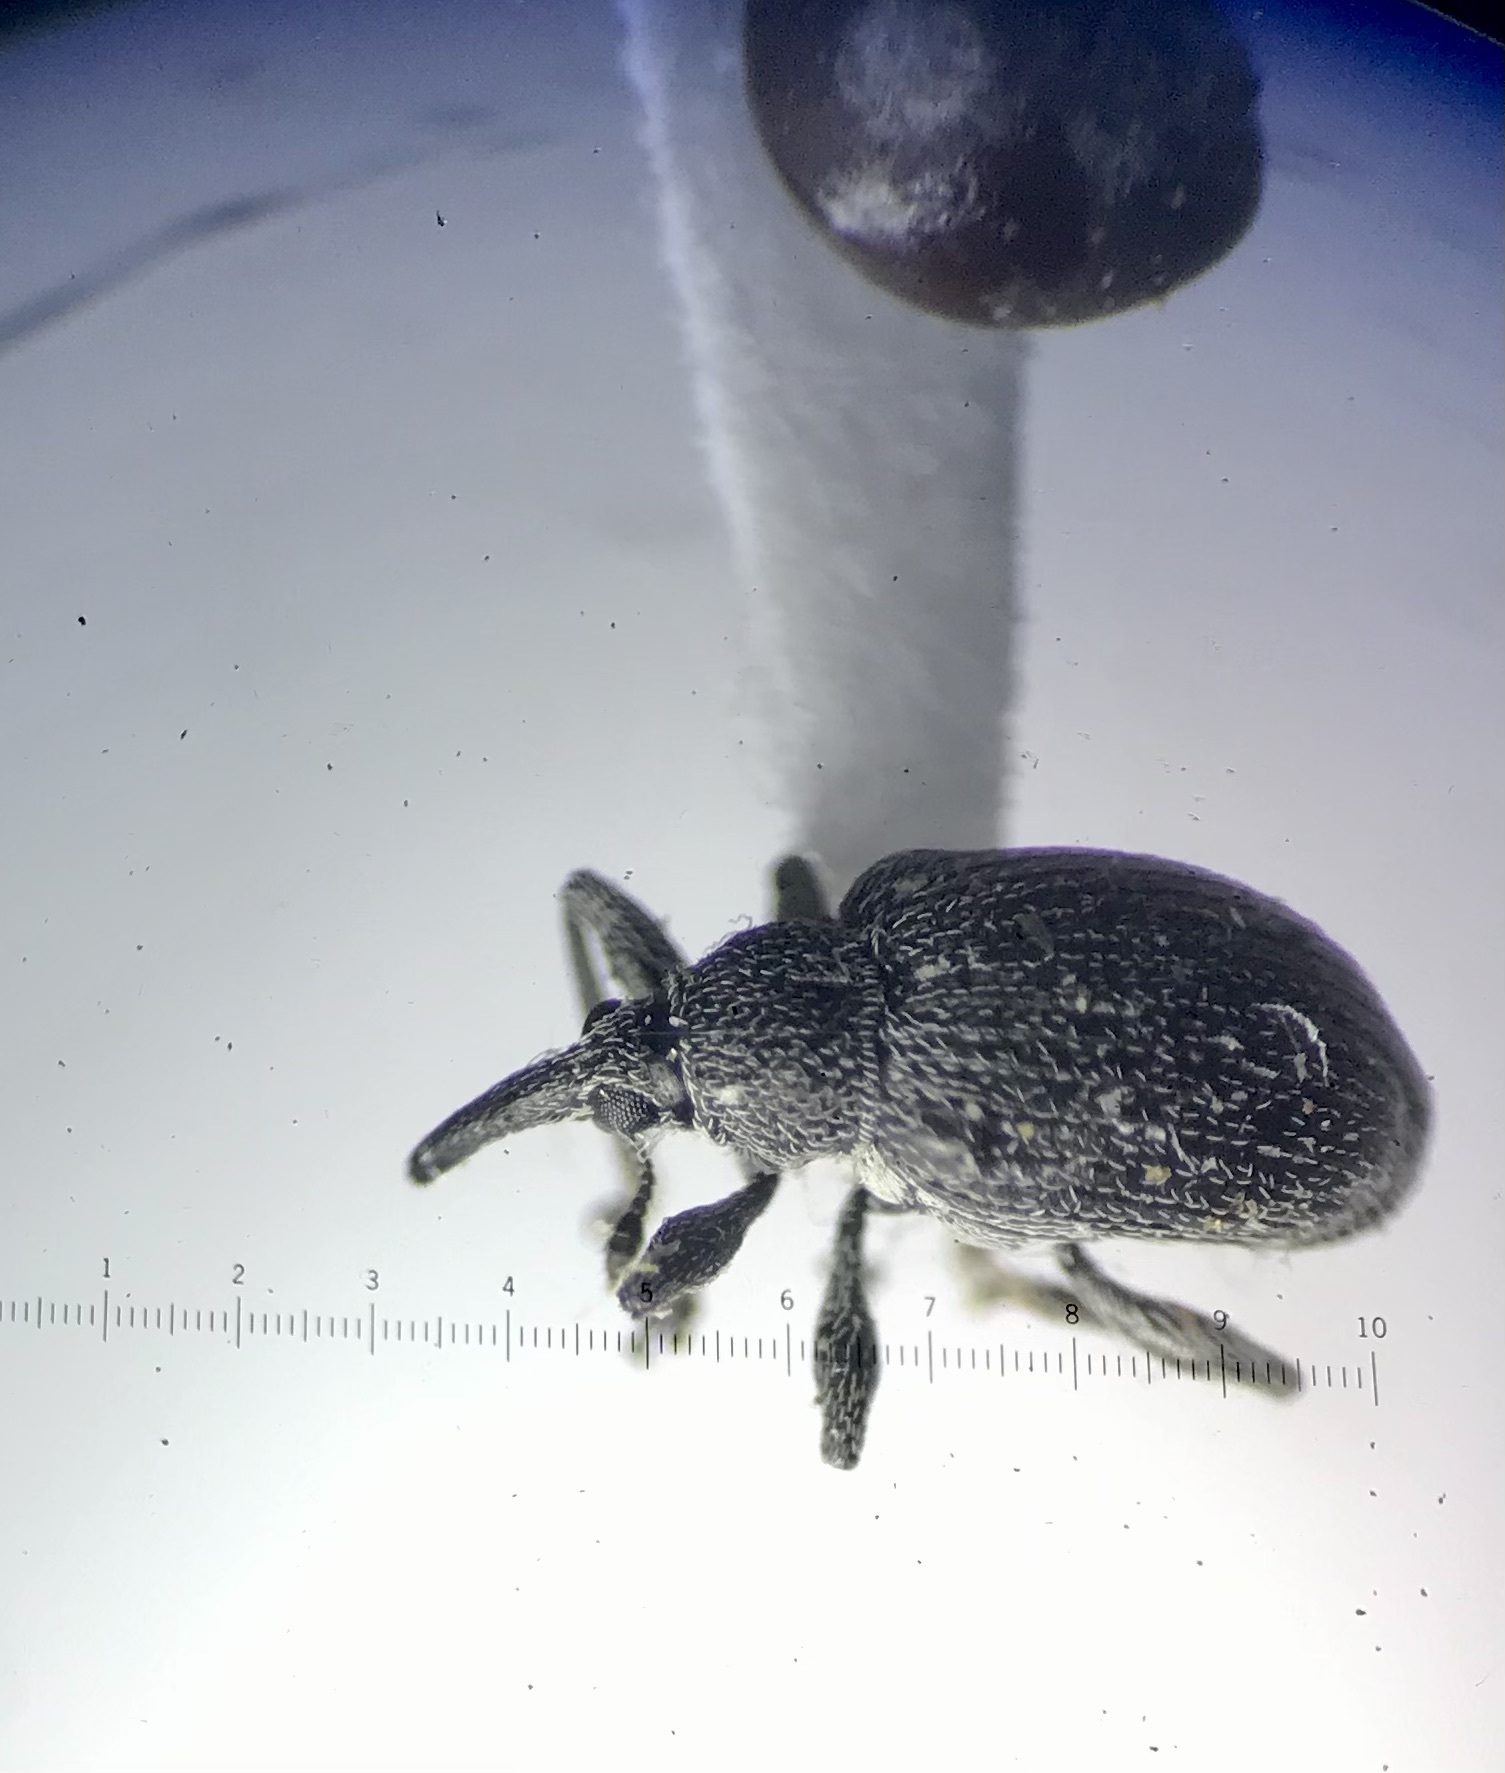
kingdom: Animalia
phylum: Arthropoda
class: Insecta
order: Coleoptera
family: Brentidae
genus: Trichapion
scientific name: Trichapion
